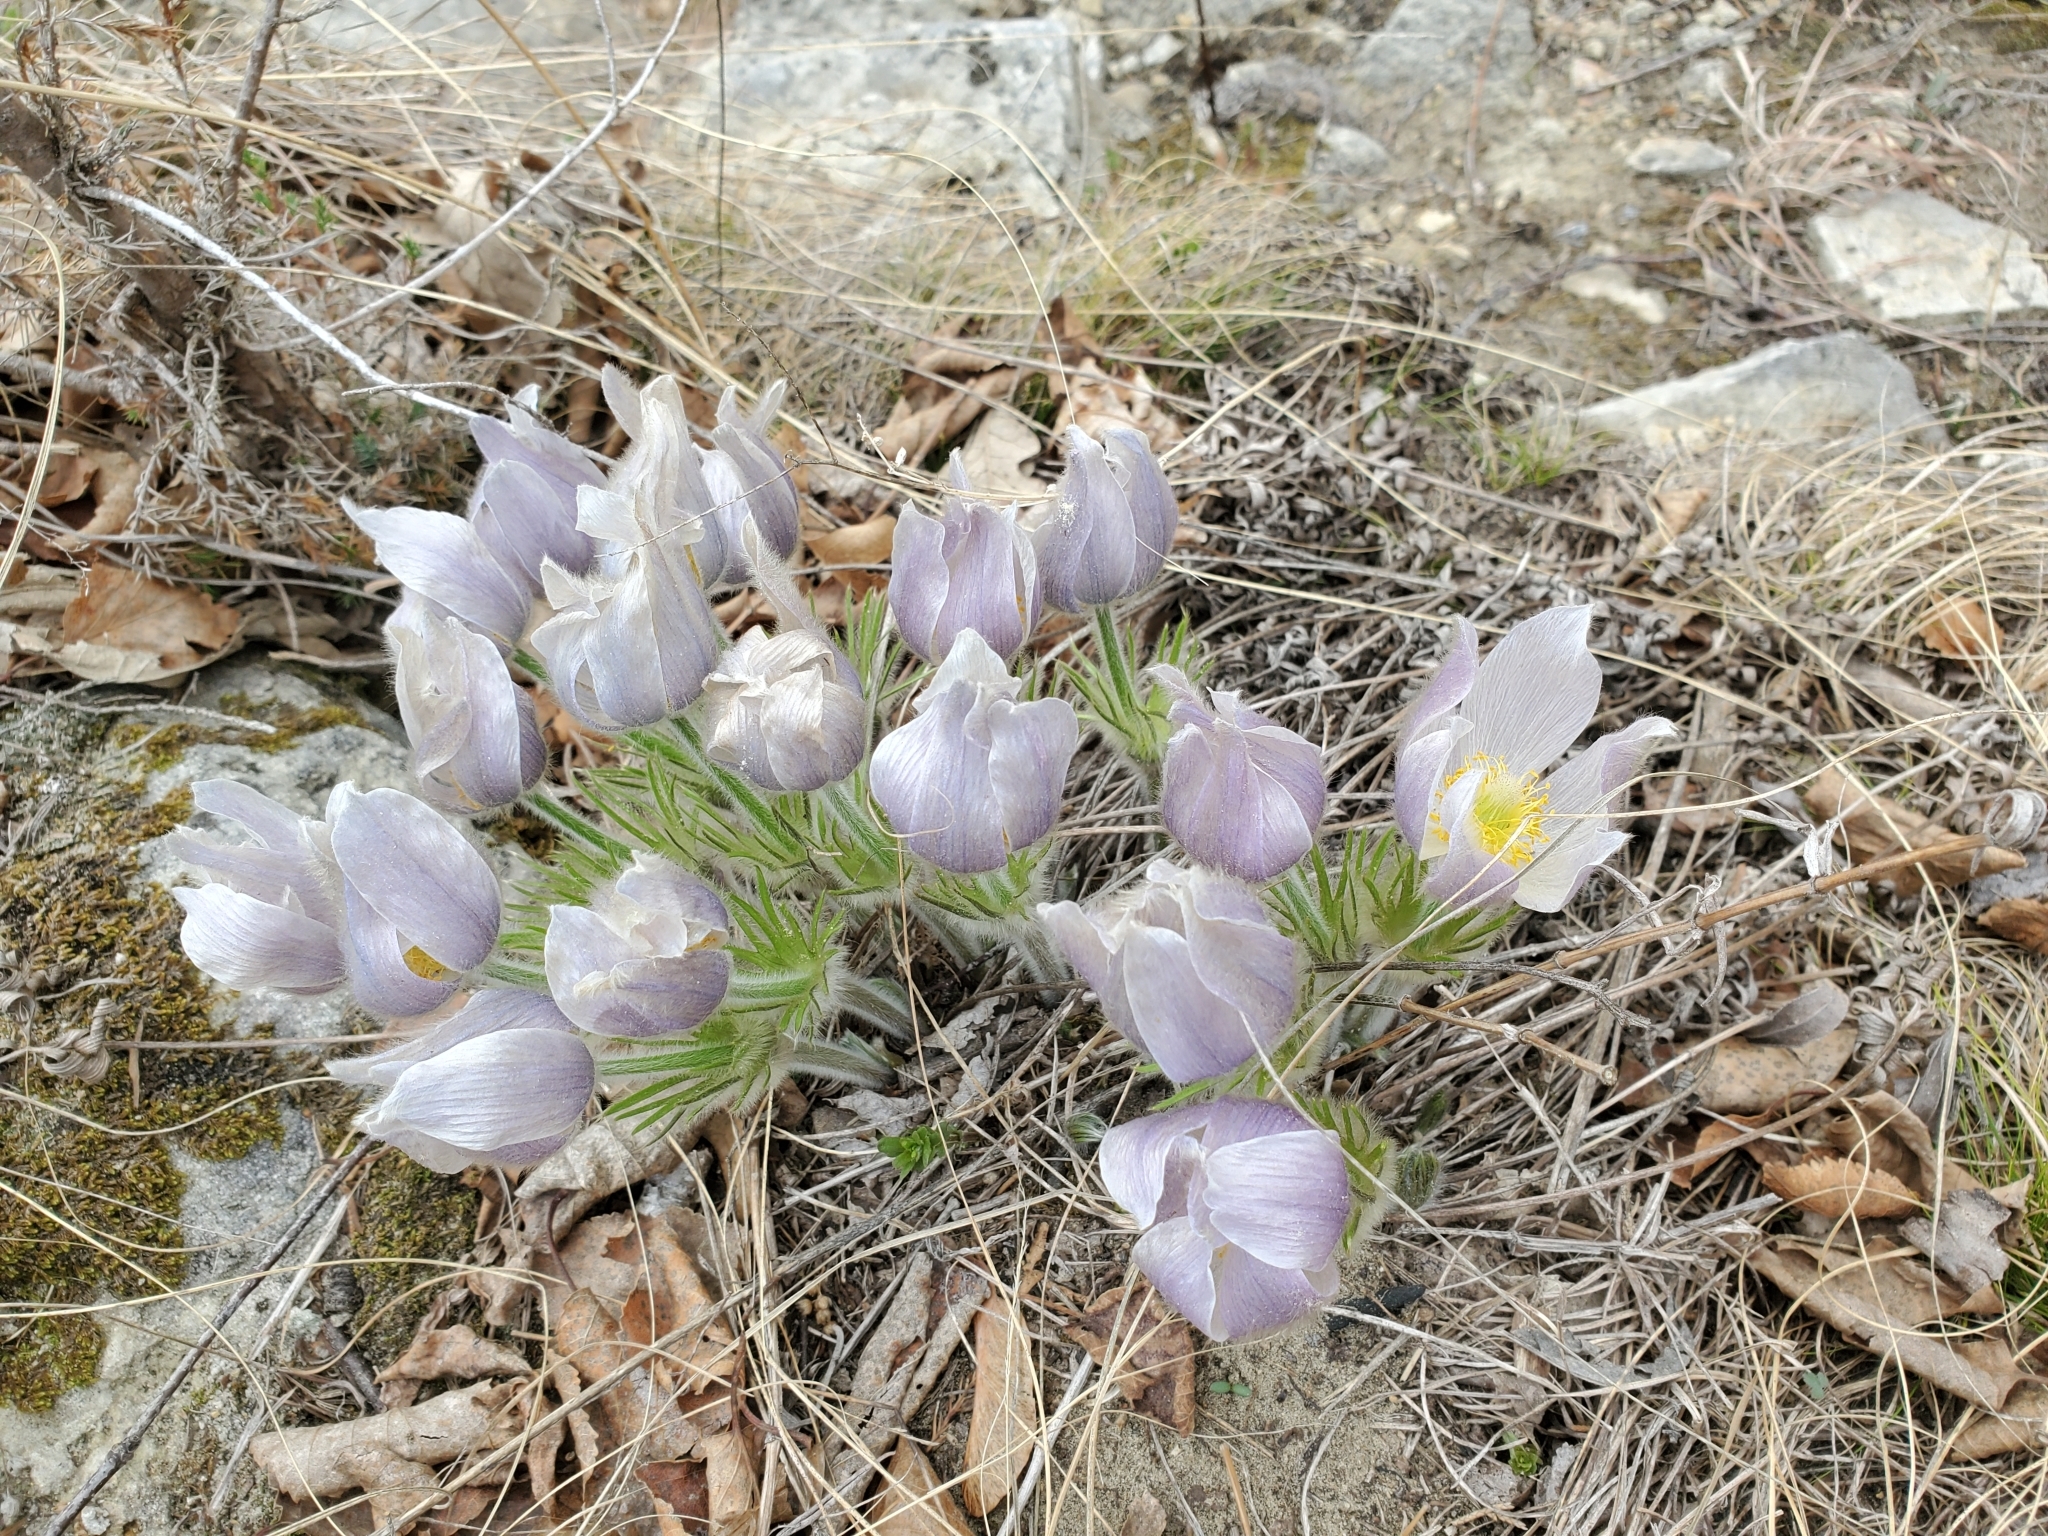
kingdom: Plantae
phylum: Tracheophyta
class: Magnoliopsida
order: Ranunculales
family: Ranunculaceae
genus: Pulsatilla
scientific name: Pulsatilla nuttalliana
